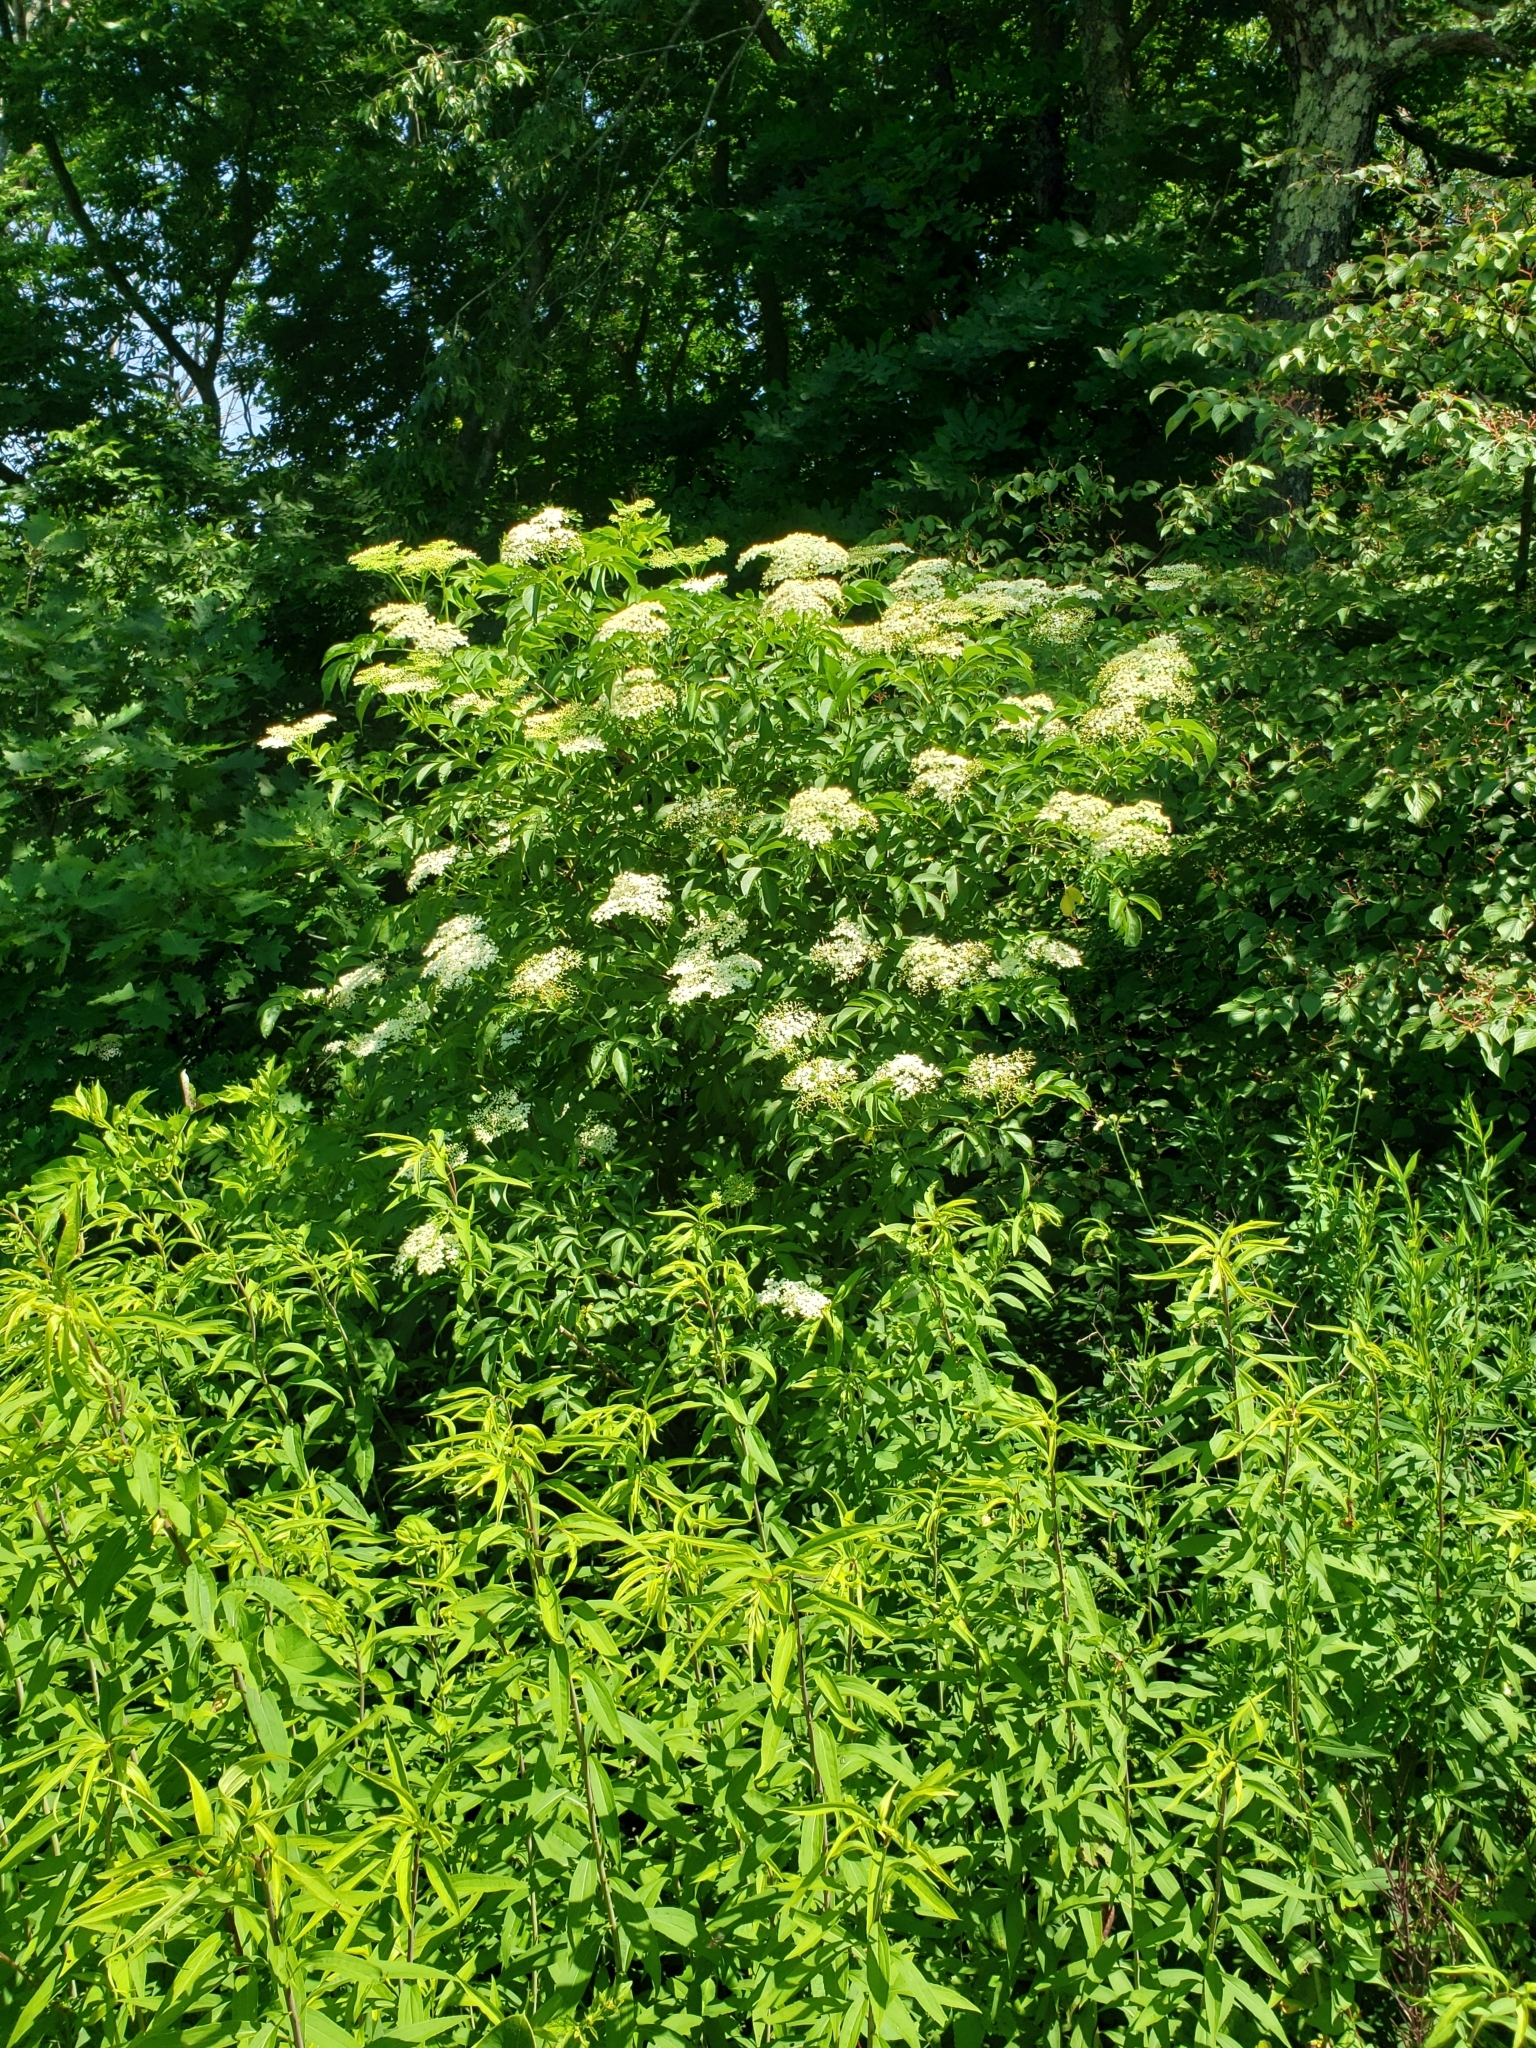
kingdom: Plantae
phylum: Tracheophyta
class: Magnoliopsida
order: Dipsacales
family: Viburnaceae
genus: Sambucus
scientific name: Sambucus canadensis
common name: American elder
